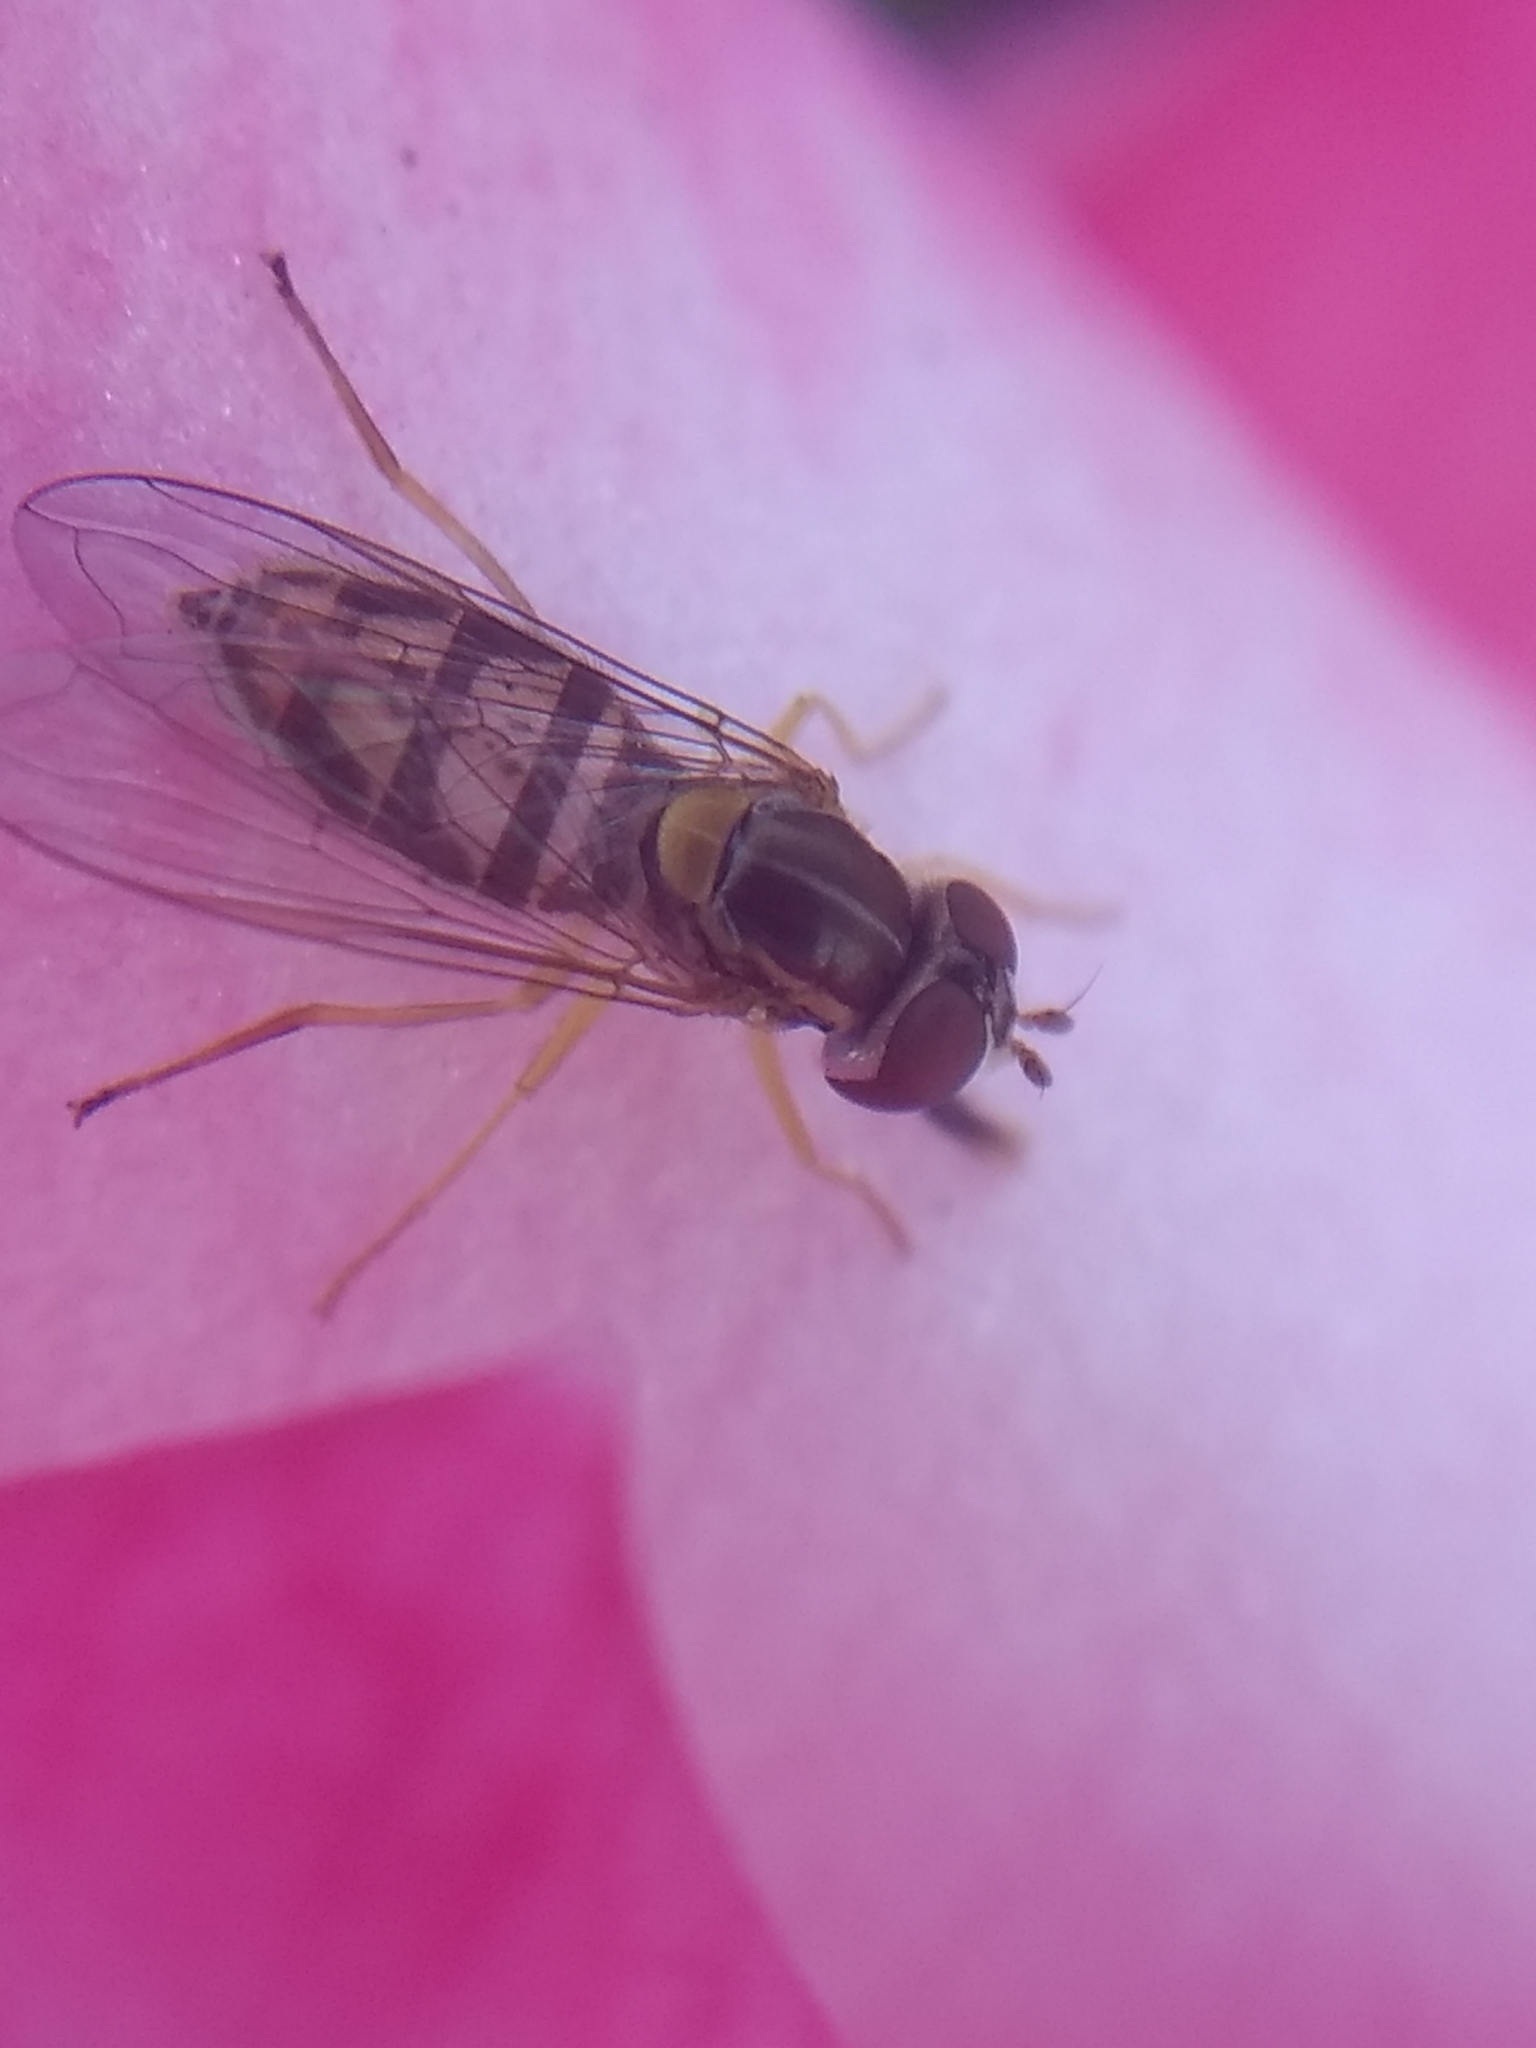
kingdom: Animalia
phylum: Arthropoda
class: Insecta
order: Diptera
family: Syrphidae
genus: Toxomerus
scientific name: Toxomerus marginatus
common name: Syrphid fly
